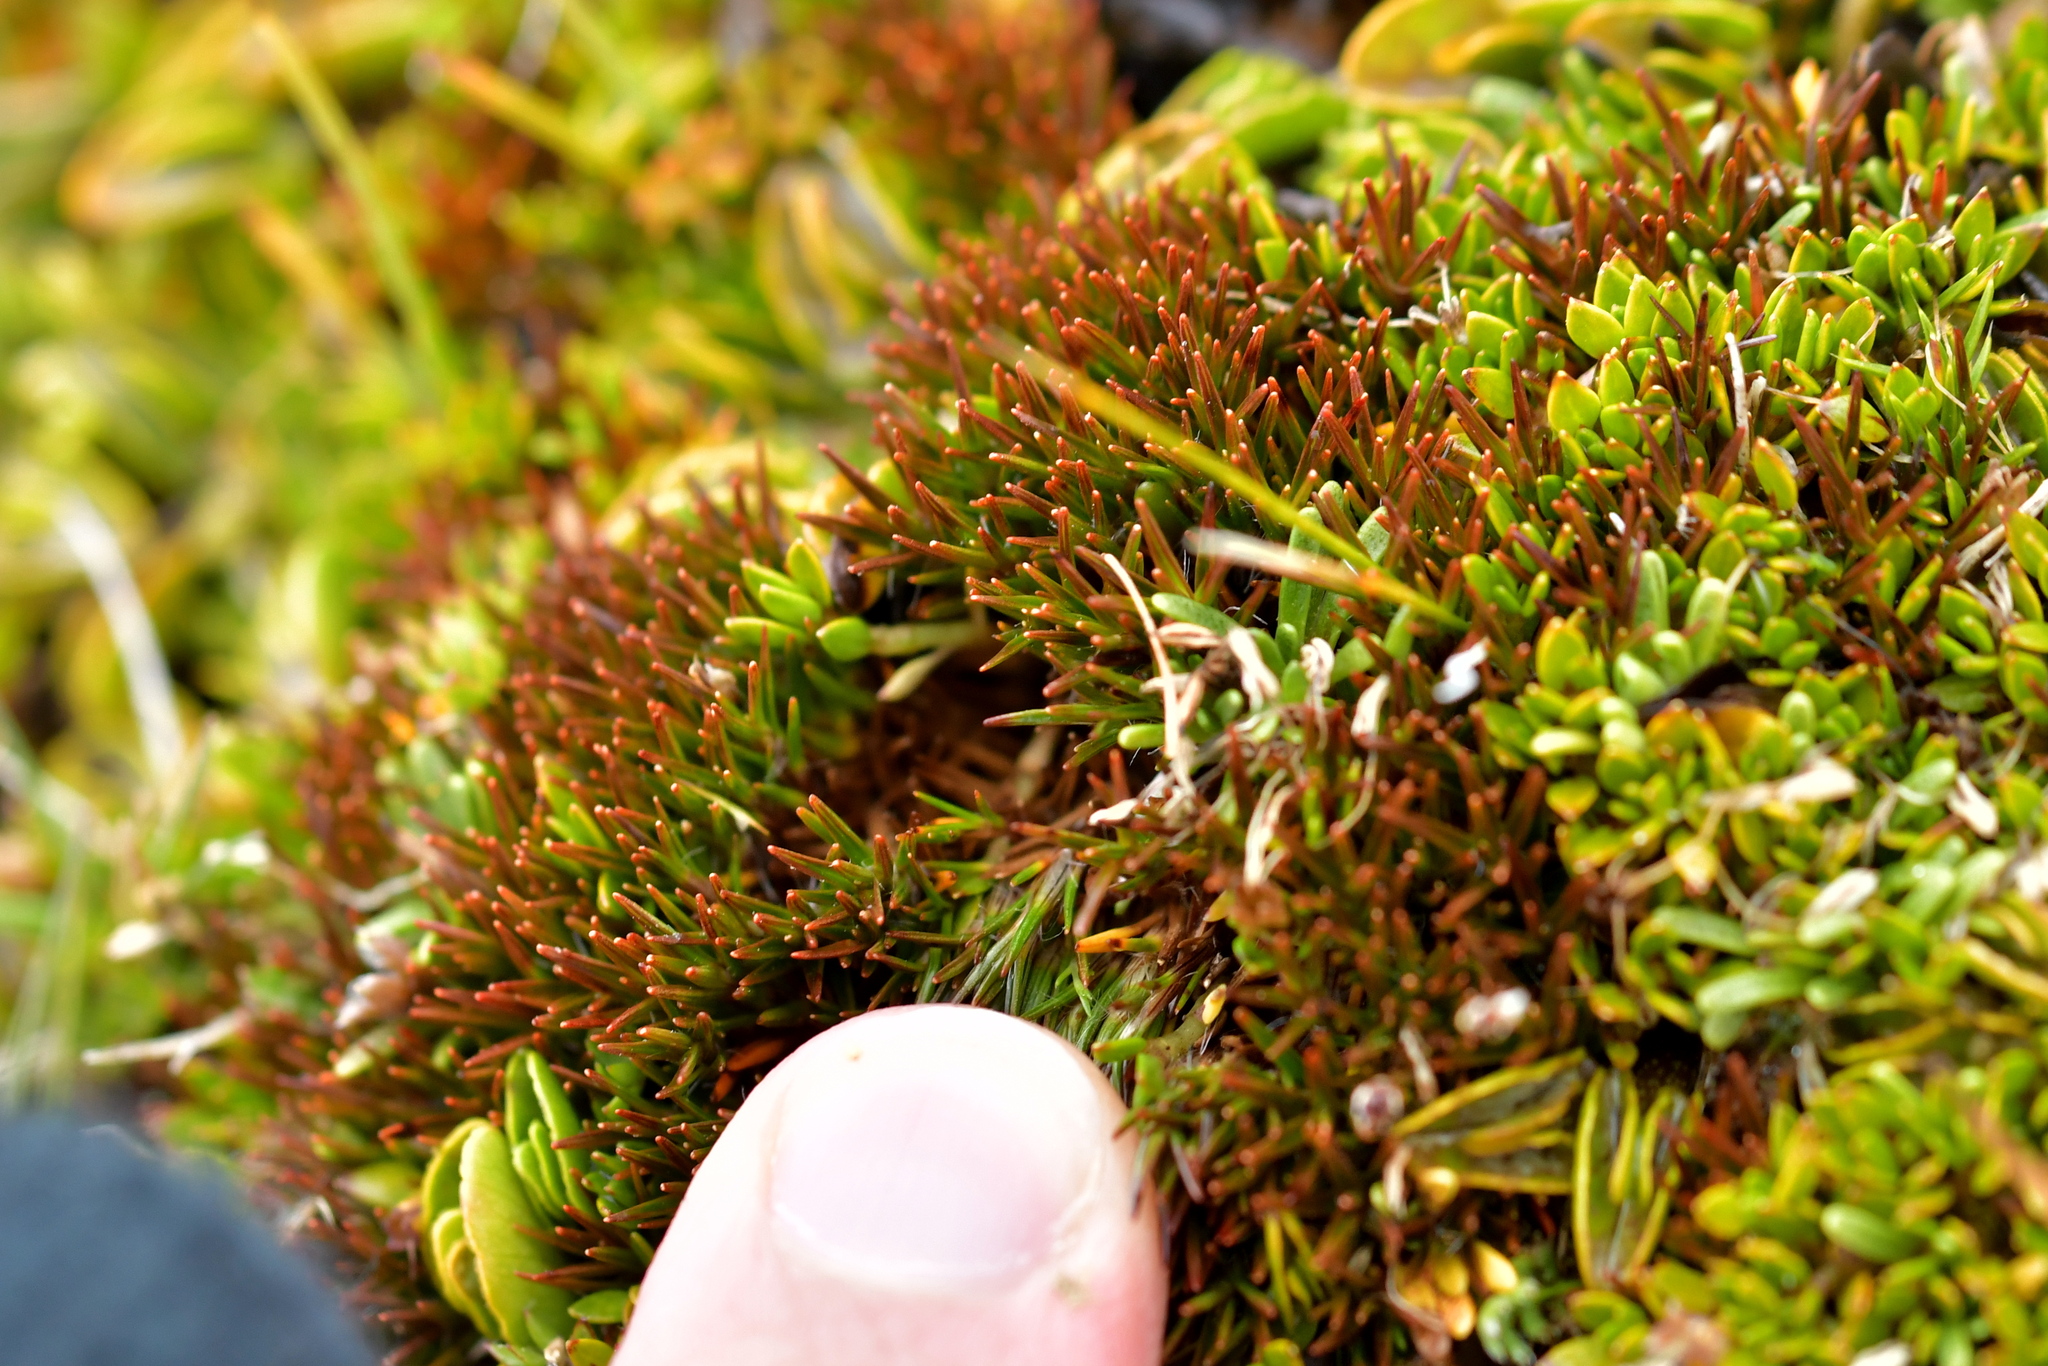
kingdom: Plantae
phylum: Tracheophyta
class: Liliopsida
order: Poales
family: Juncaceae
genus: Luzula
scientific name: Luzula pumila
